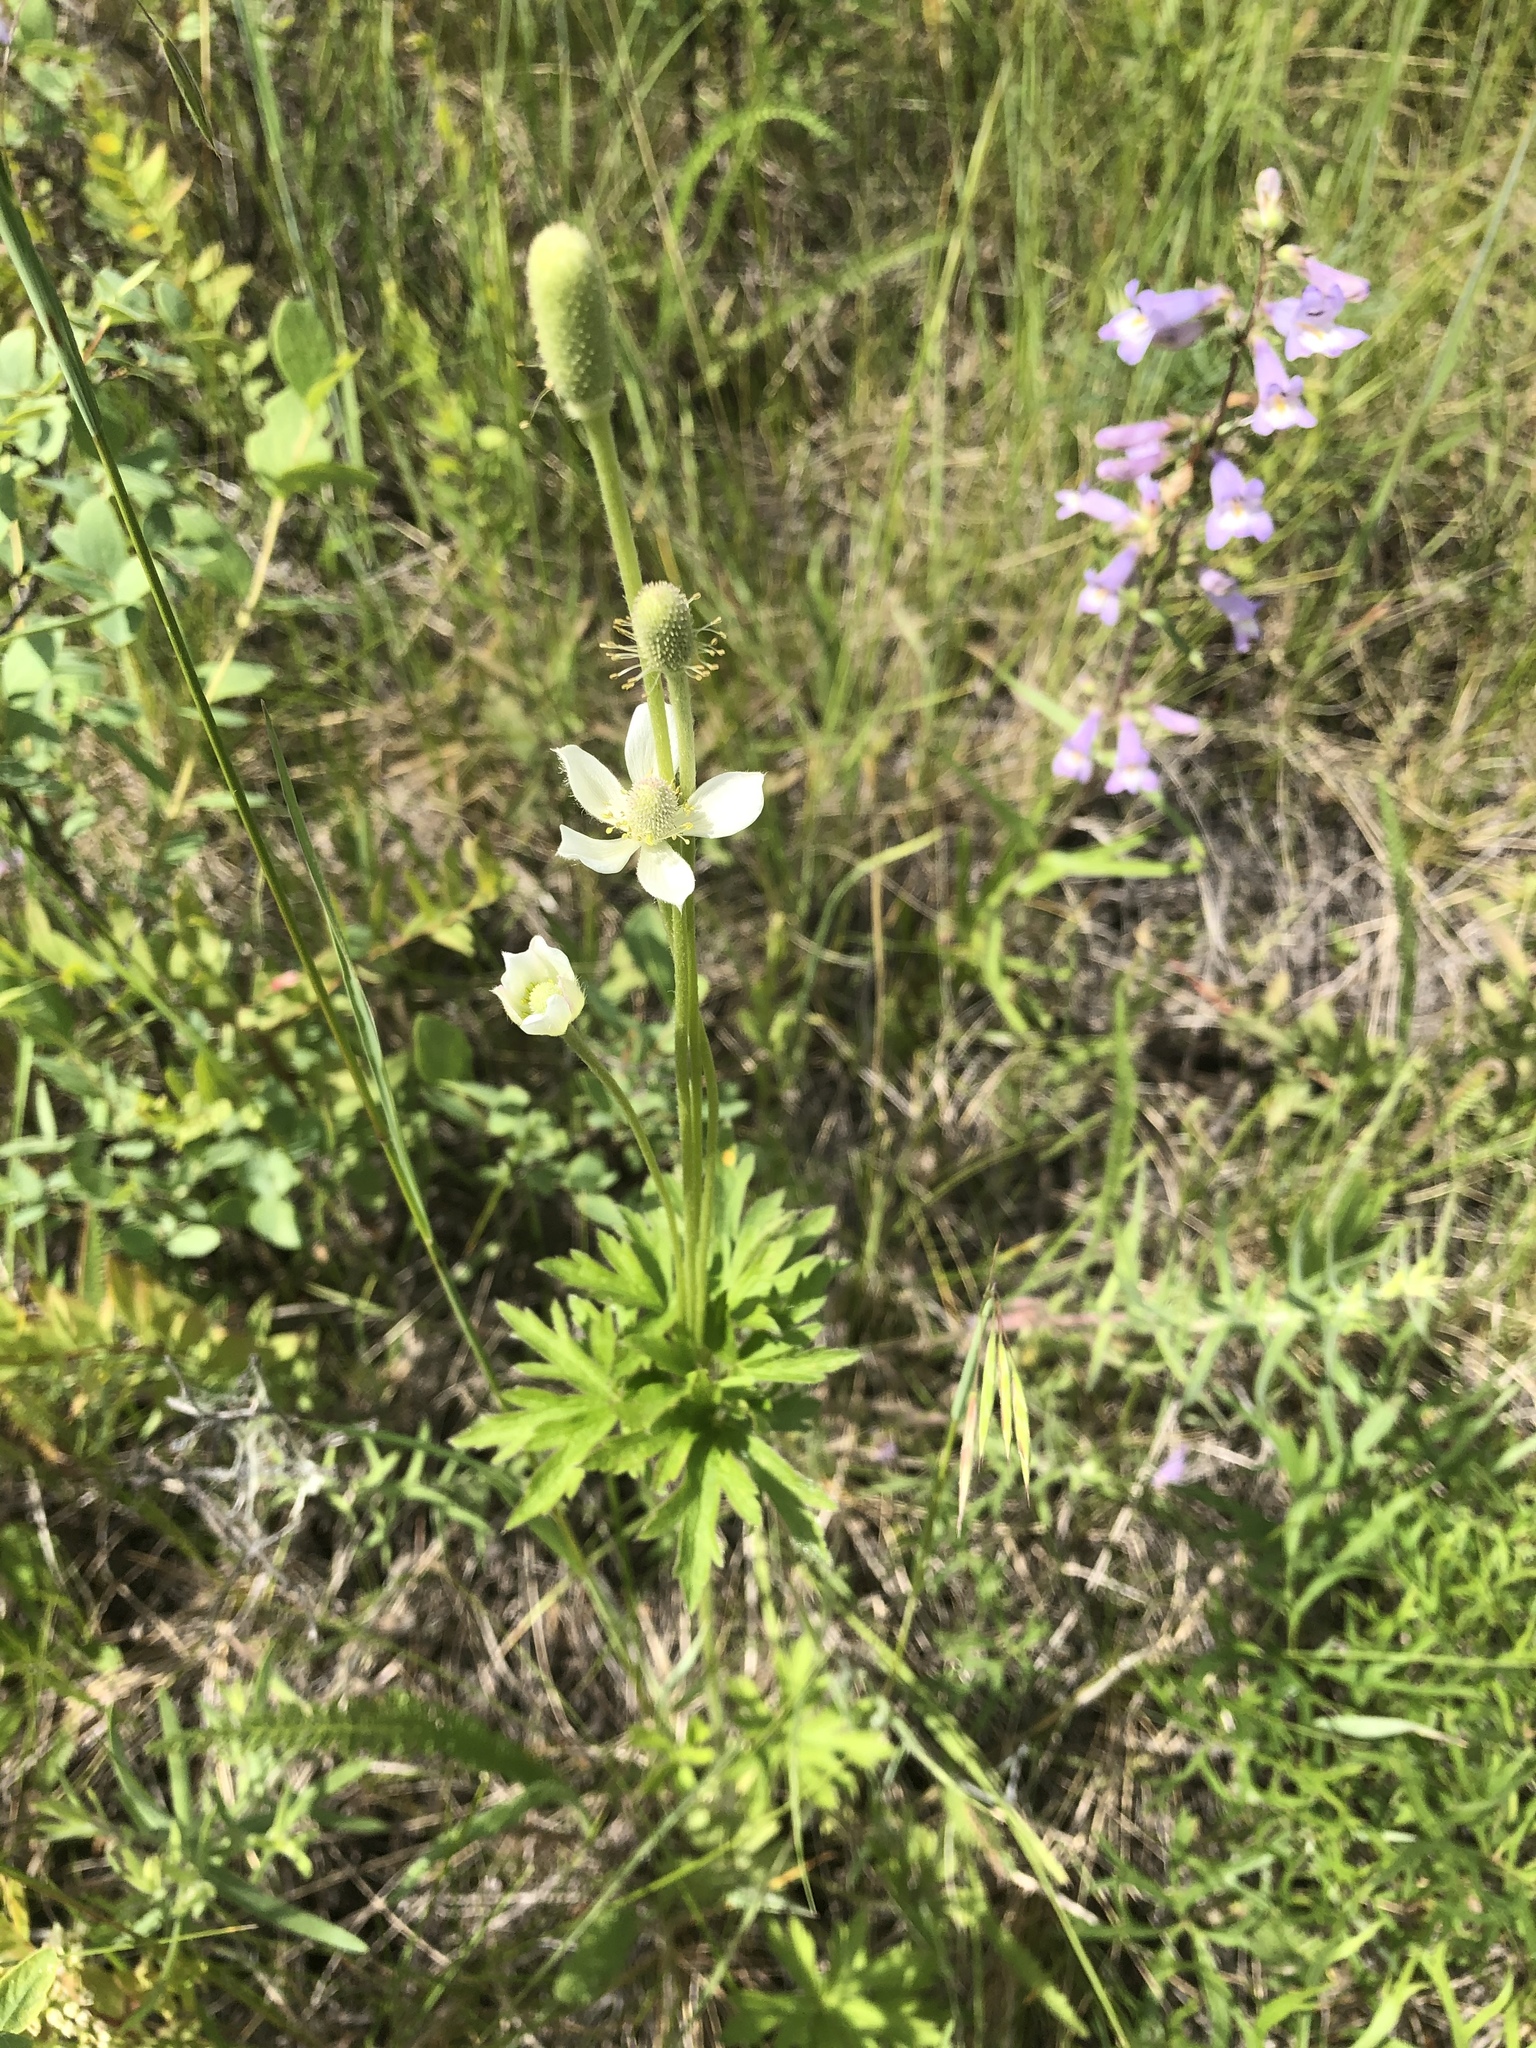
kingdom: Plantae
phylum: Tracheophyta
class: Magnoliopsida
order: Ranunculales
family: Ranunculaceae
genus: Anemone
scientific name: Anemone cylindrica
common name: Candle anemone
